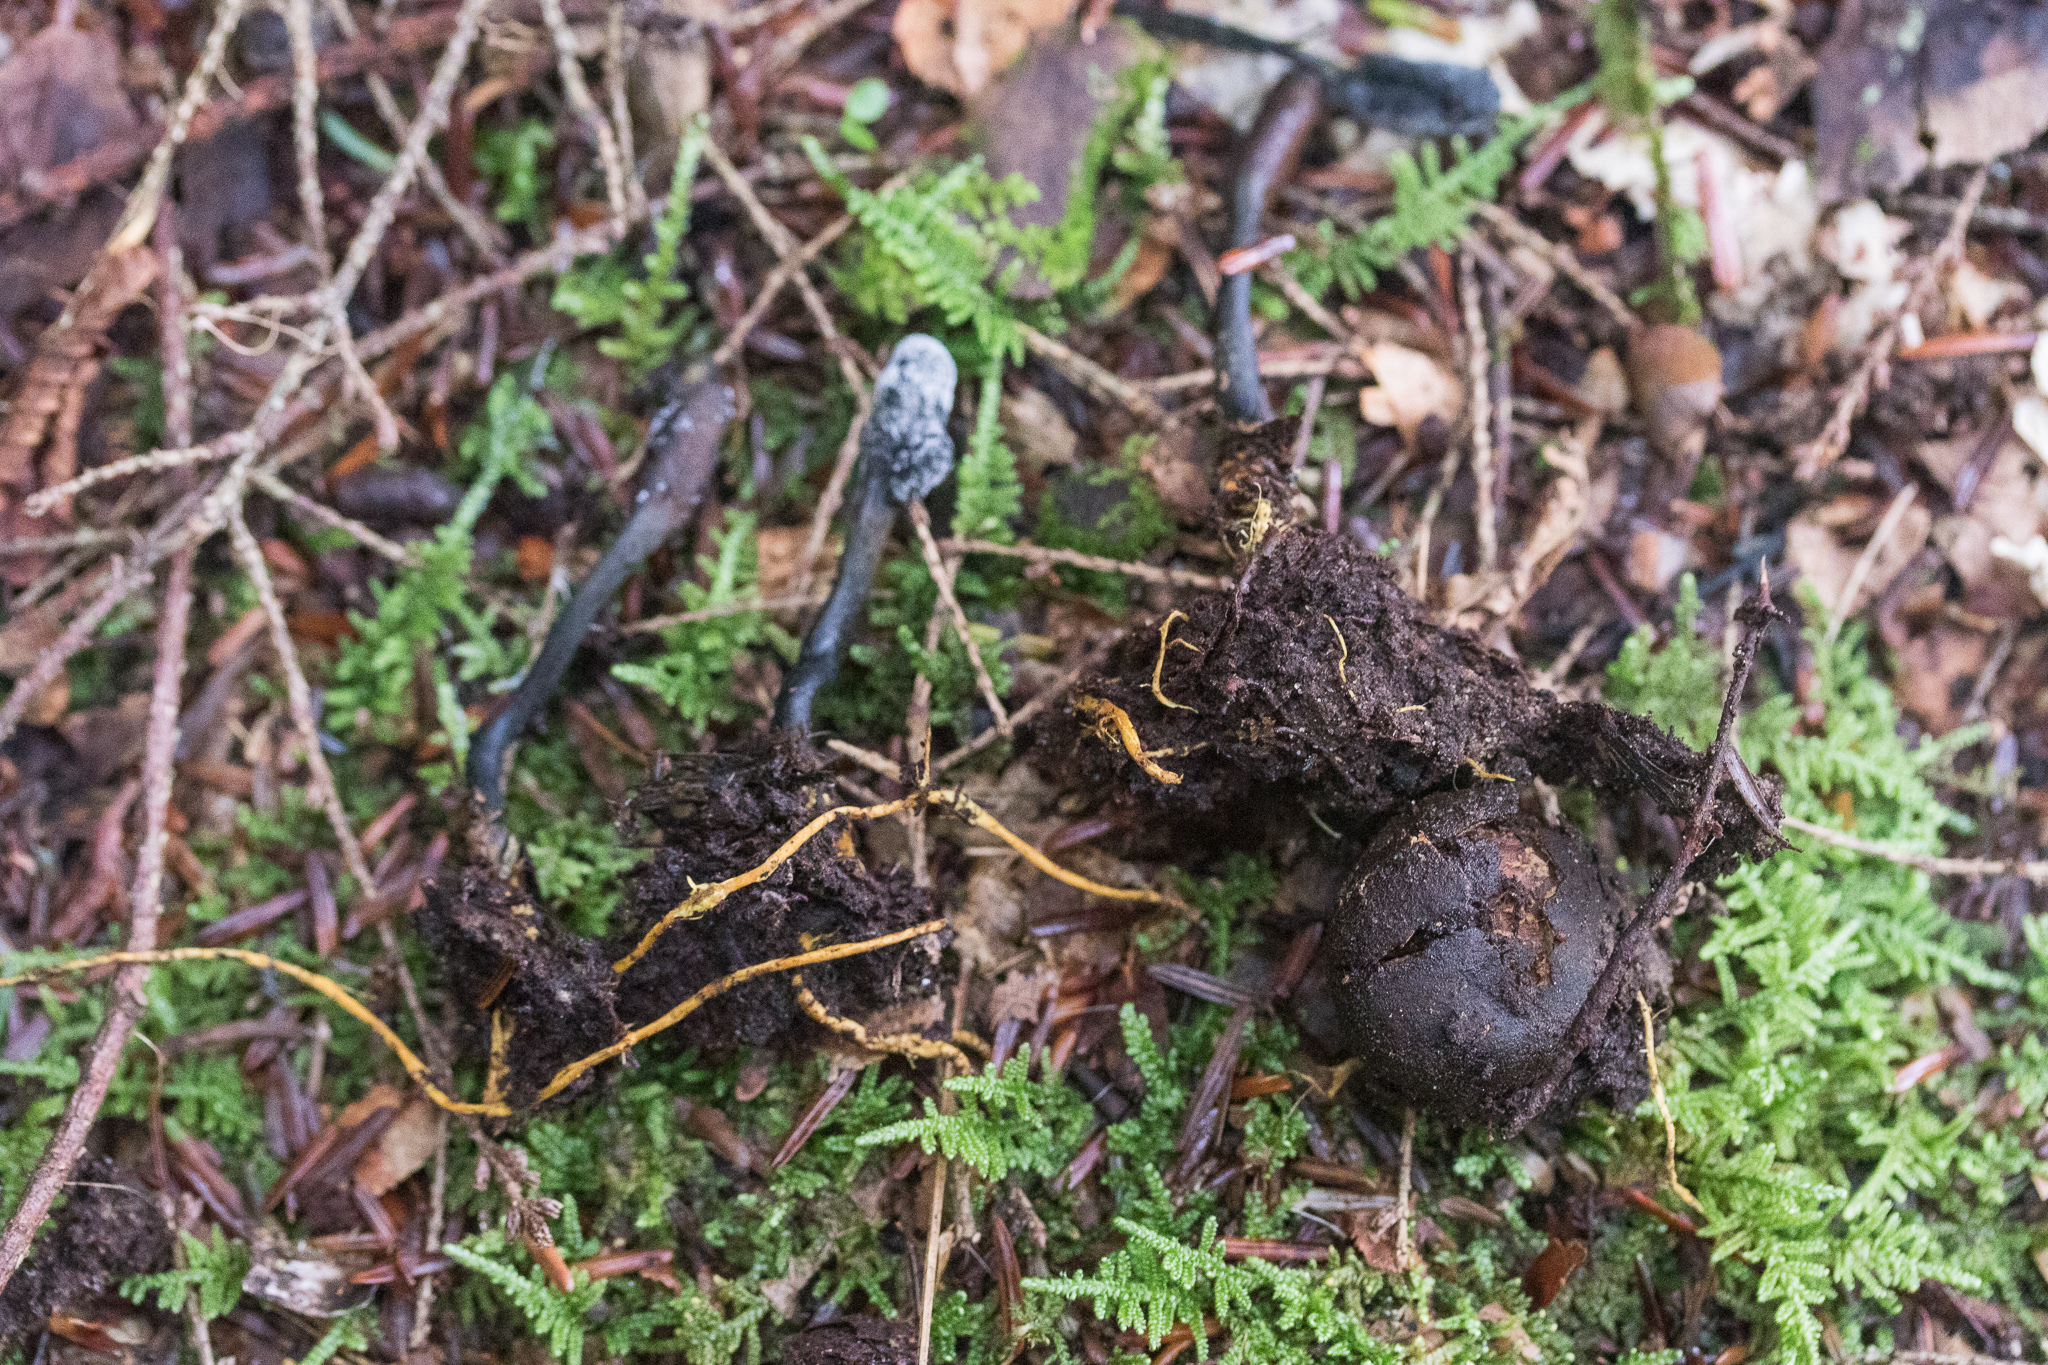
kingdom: Fungi
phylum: Ascomycota
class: Sordariomycetes
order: Hypocreales
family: Ophiocordycipitaceae
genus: Tolypocladium
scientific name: Tolypocladium ophioglossoides
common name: Snaketongue truffleclub
